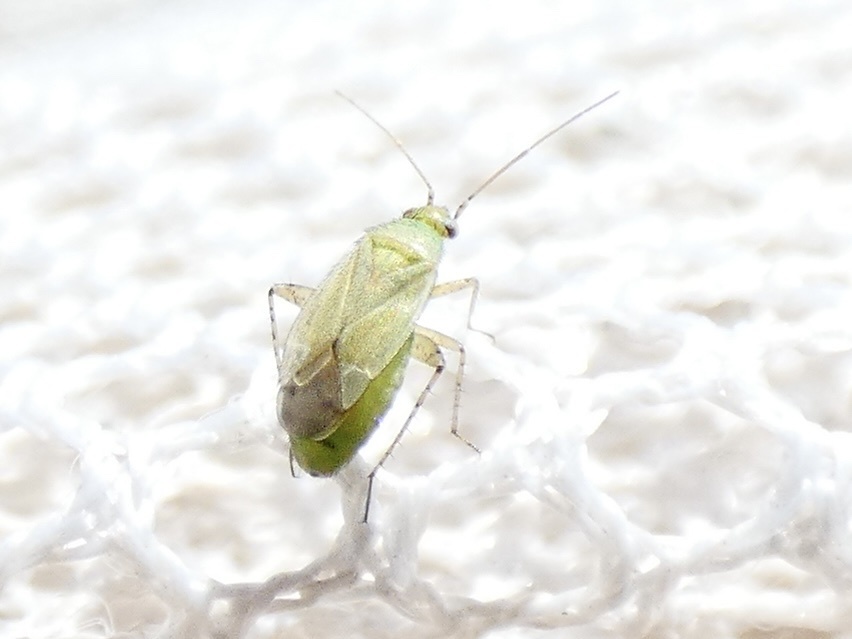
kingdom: Animalia
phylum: Arthropoda
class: Insecta
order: Hemiptera
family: Miridae
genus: Plagiognathus
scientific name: Plagiognathus chrysanthemi
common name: Plant bug
